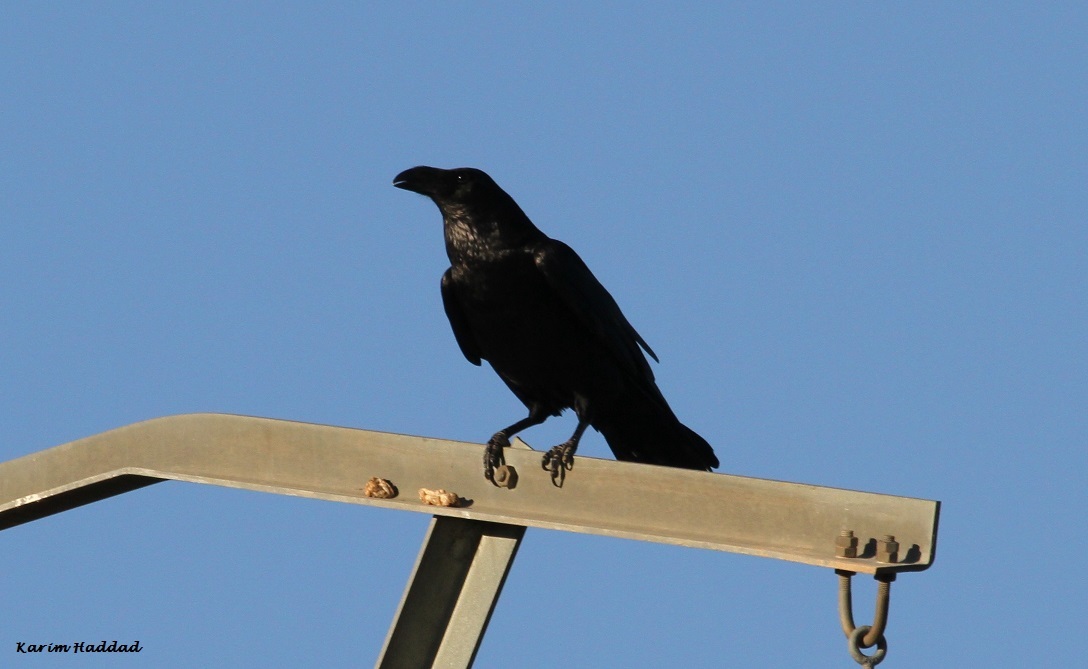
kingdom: Animalia
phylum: Chordata
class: Aves
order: Passeriformes
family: Corvidae
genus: Corvus
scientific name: Corvus corax
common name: Common raven
